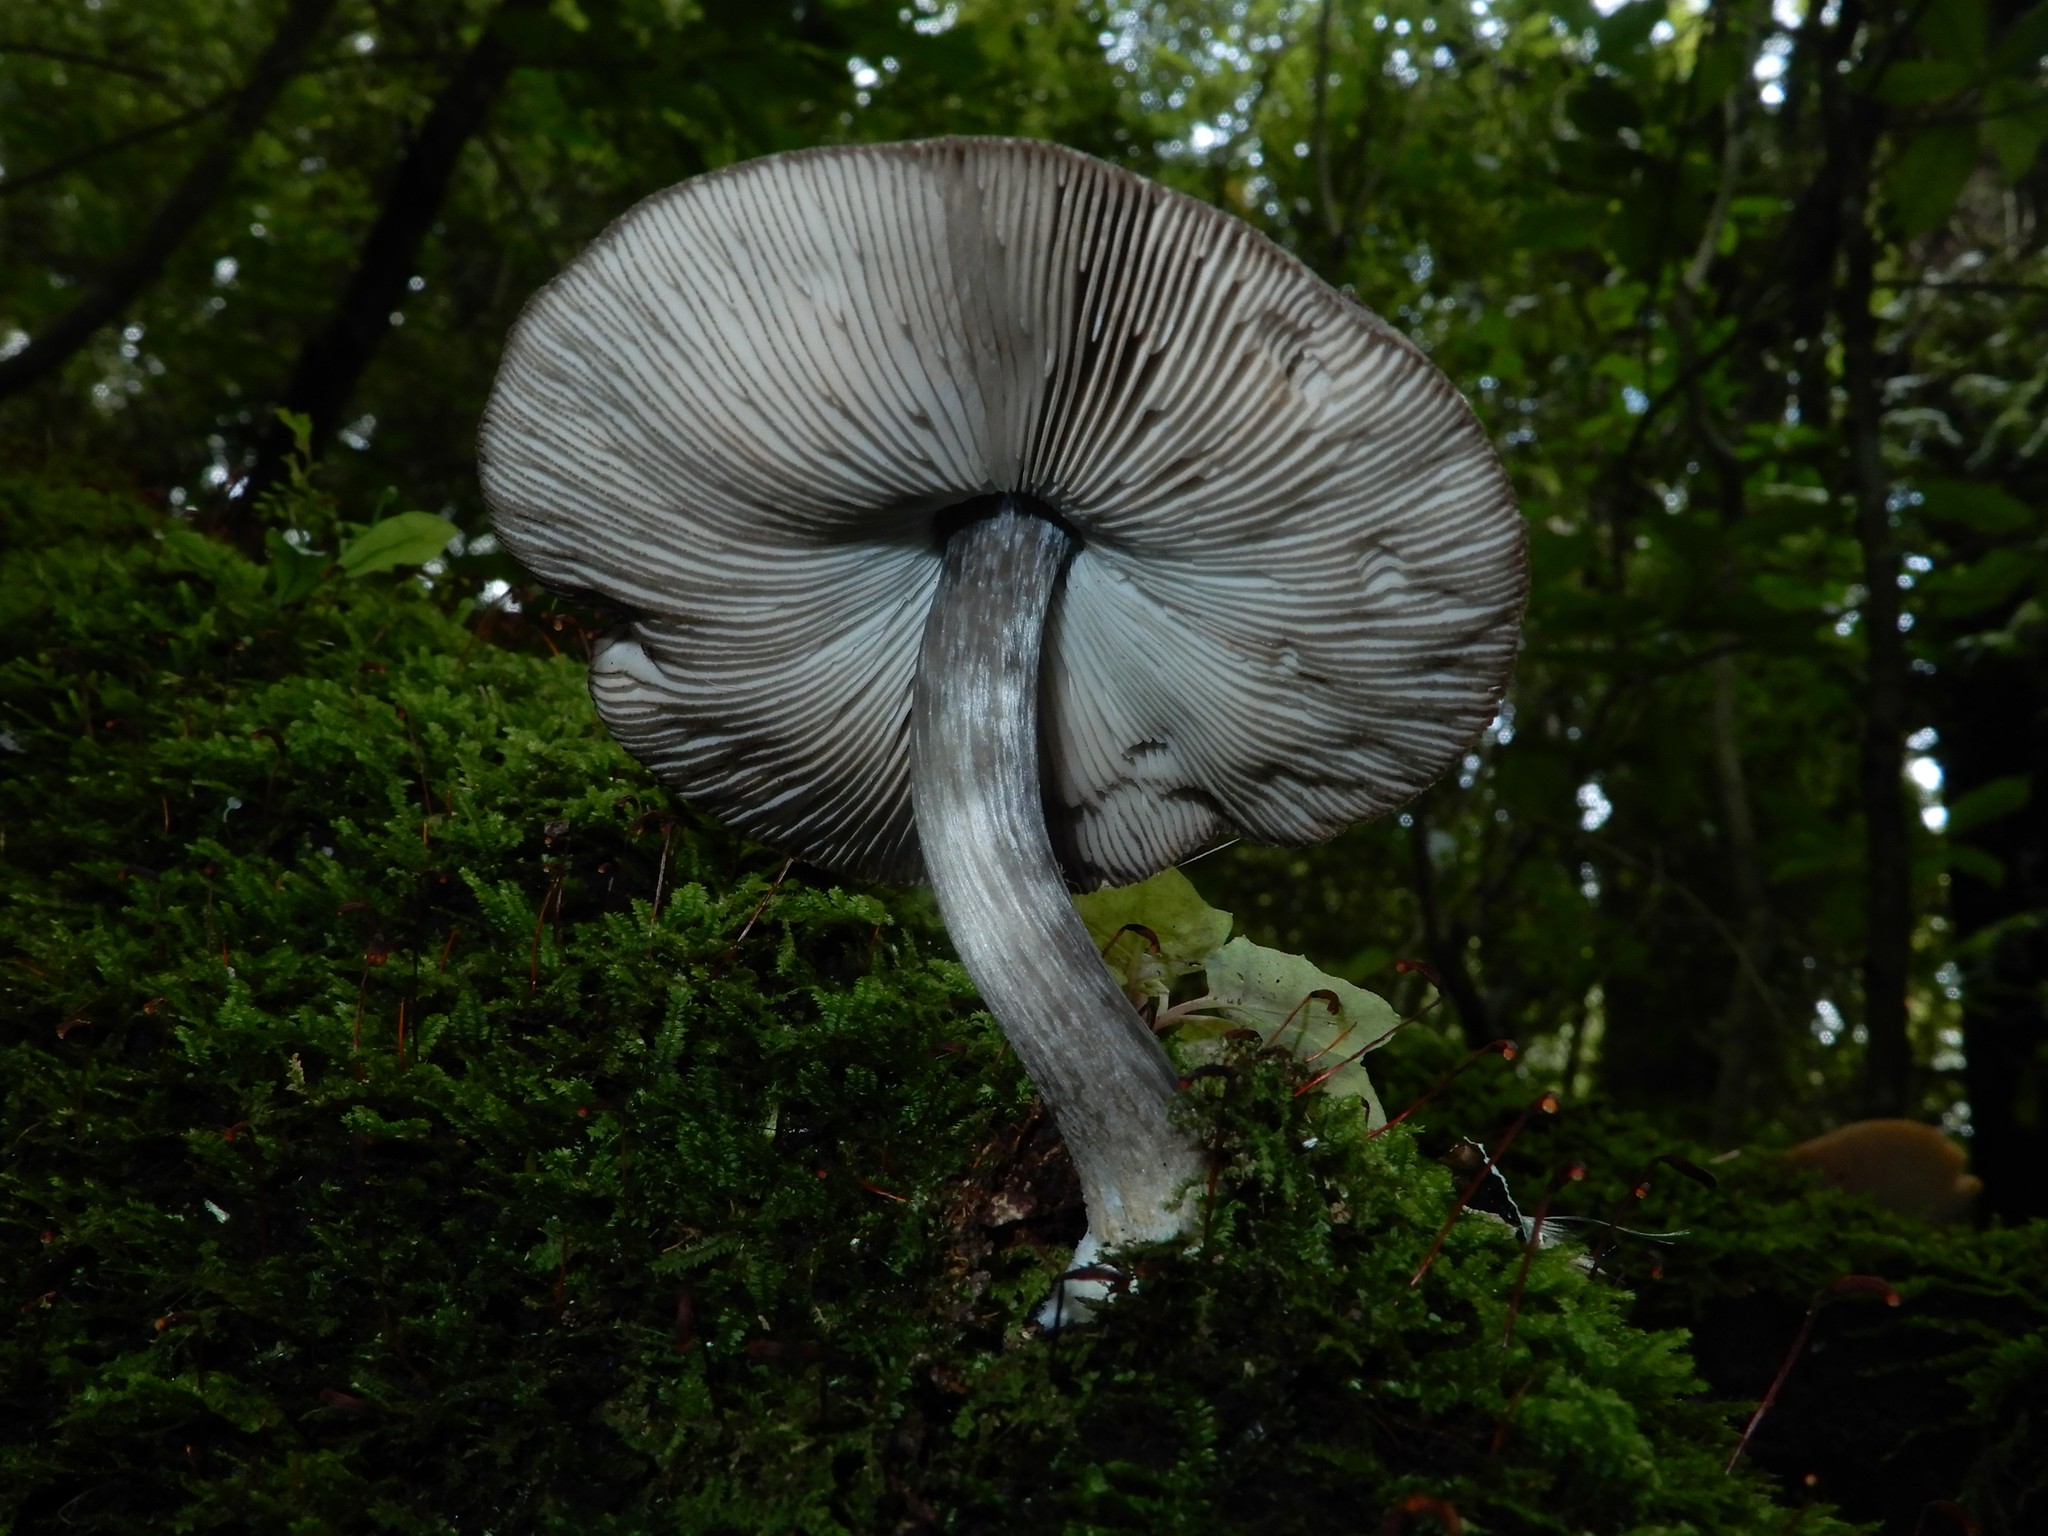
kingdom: Fungi
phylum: Basidiomycota
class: Agaricomycetes
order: Agaricales
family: Pluteaceae
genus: Pluteus
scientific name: Pluteus velutinornatus
